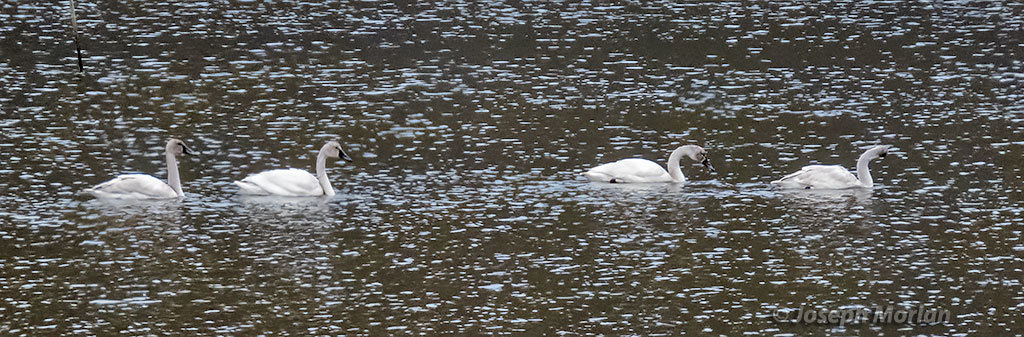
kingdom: Animalia
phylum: Chordata
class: Aves
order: Anseriformes
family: Anatidae
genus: Cygnus
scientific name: Cygnus columbianus
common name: Tundra swan
